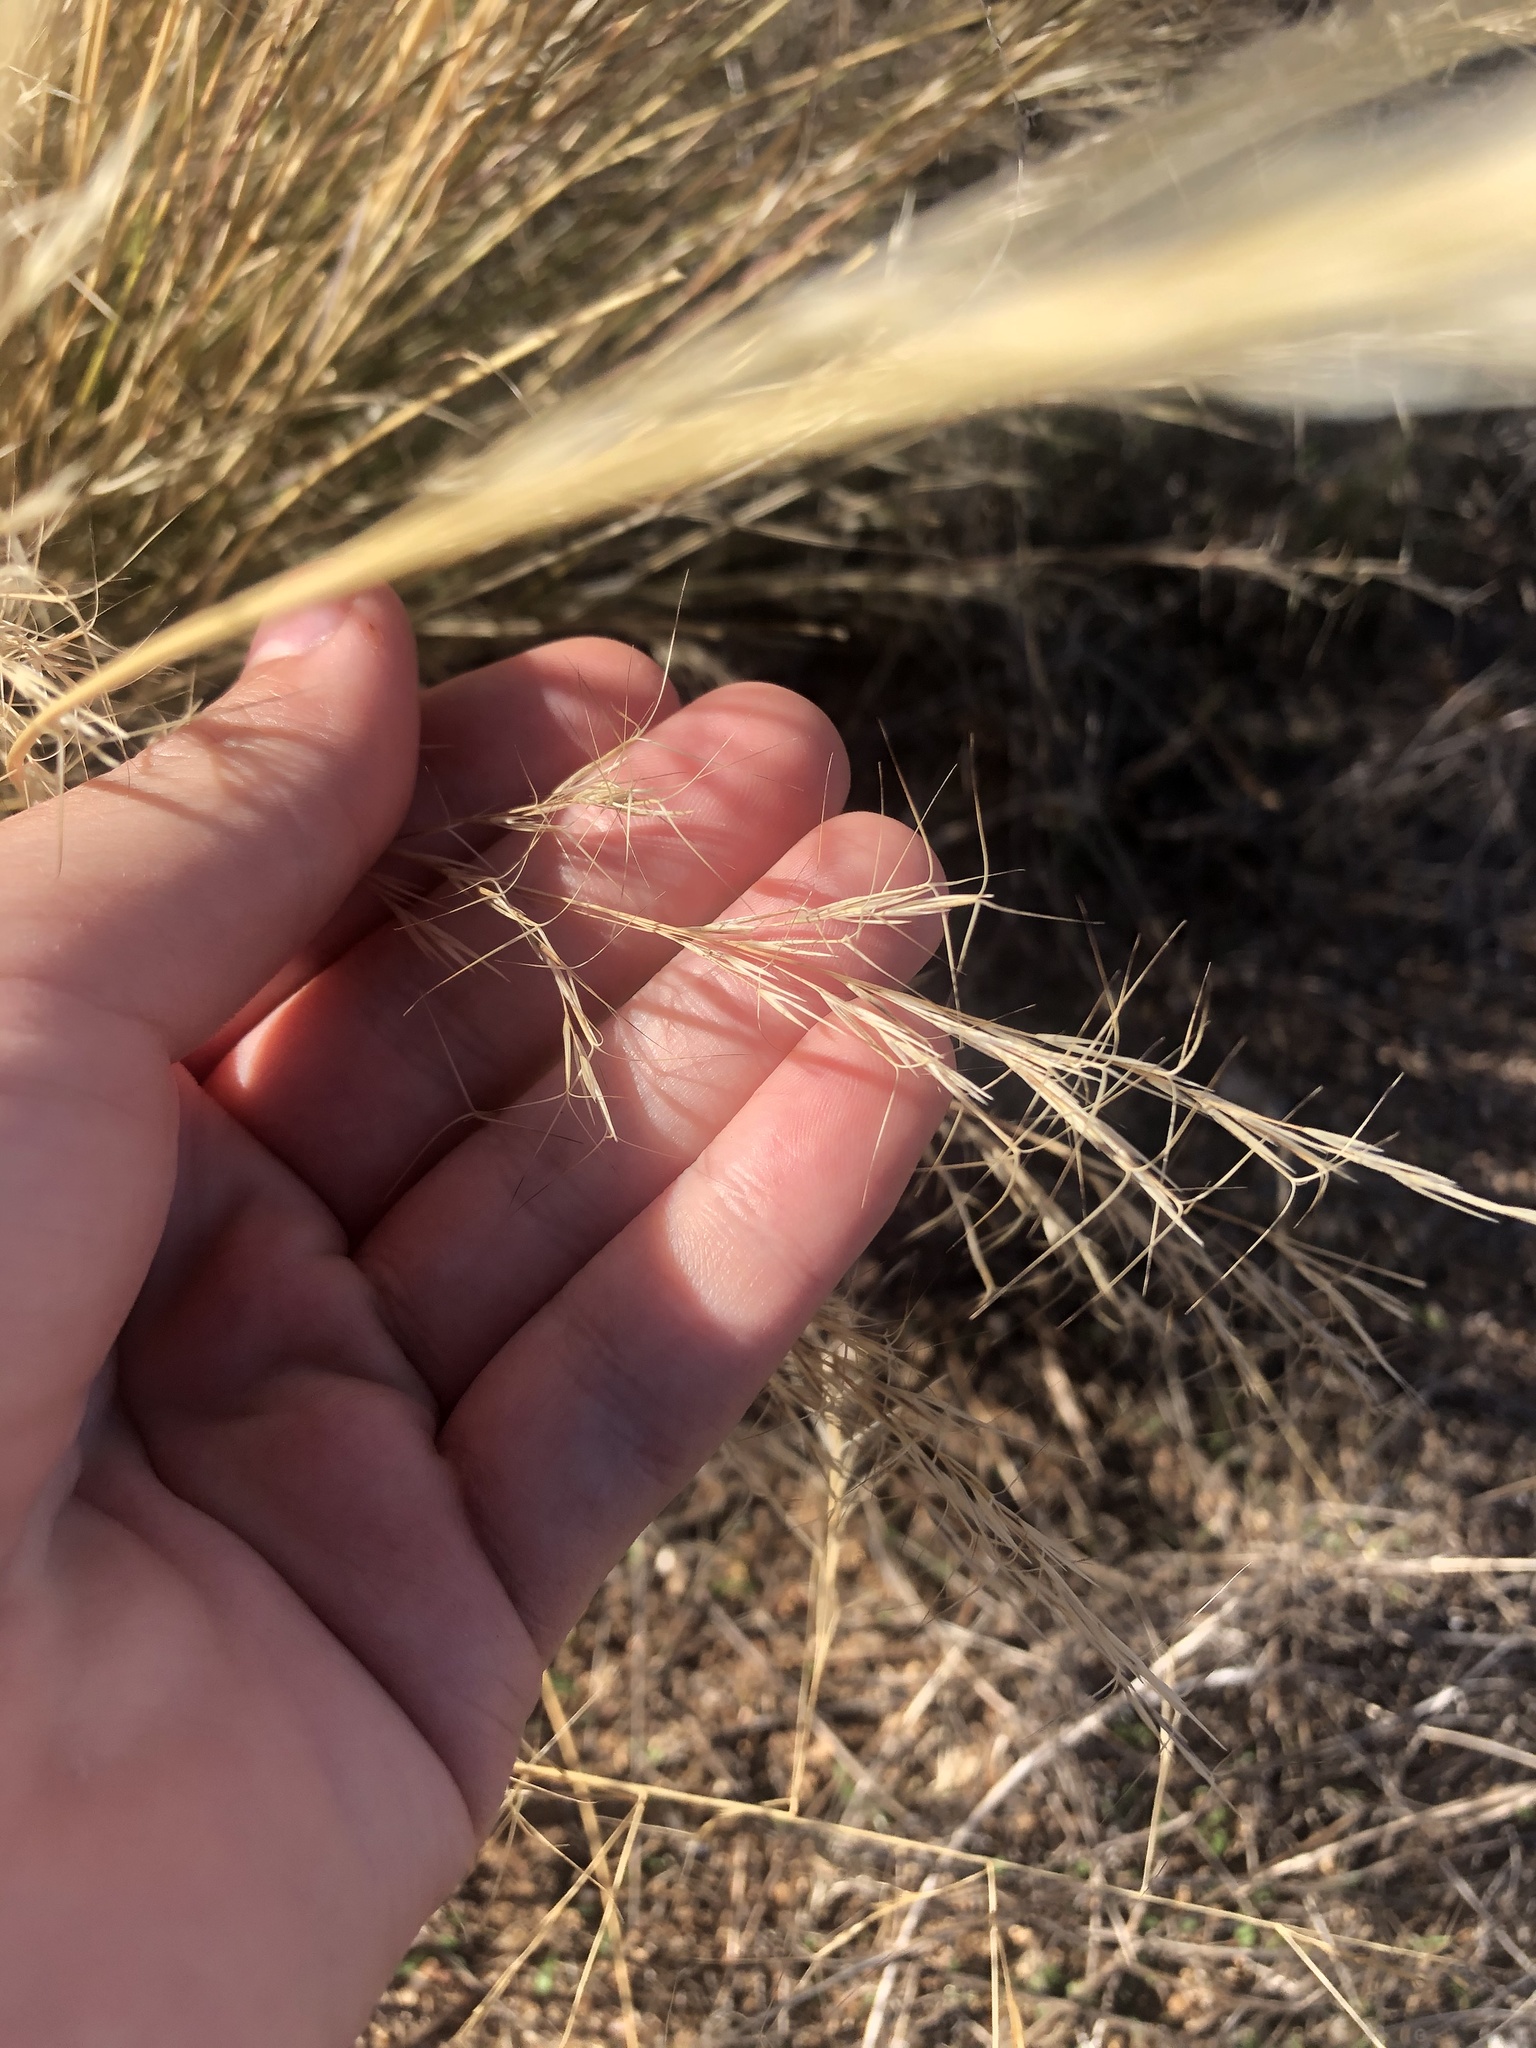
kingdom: Plantae
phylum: Tracheophyta
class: Liliopsida
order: Poales
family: Poaceae
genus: Aristida
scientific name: Aristida adscensionis
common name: Sixweeks threeawn
